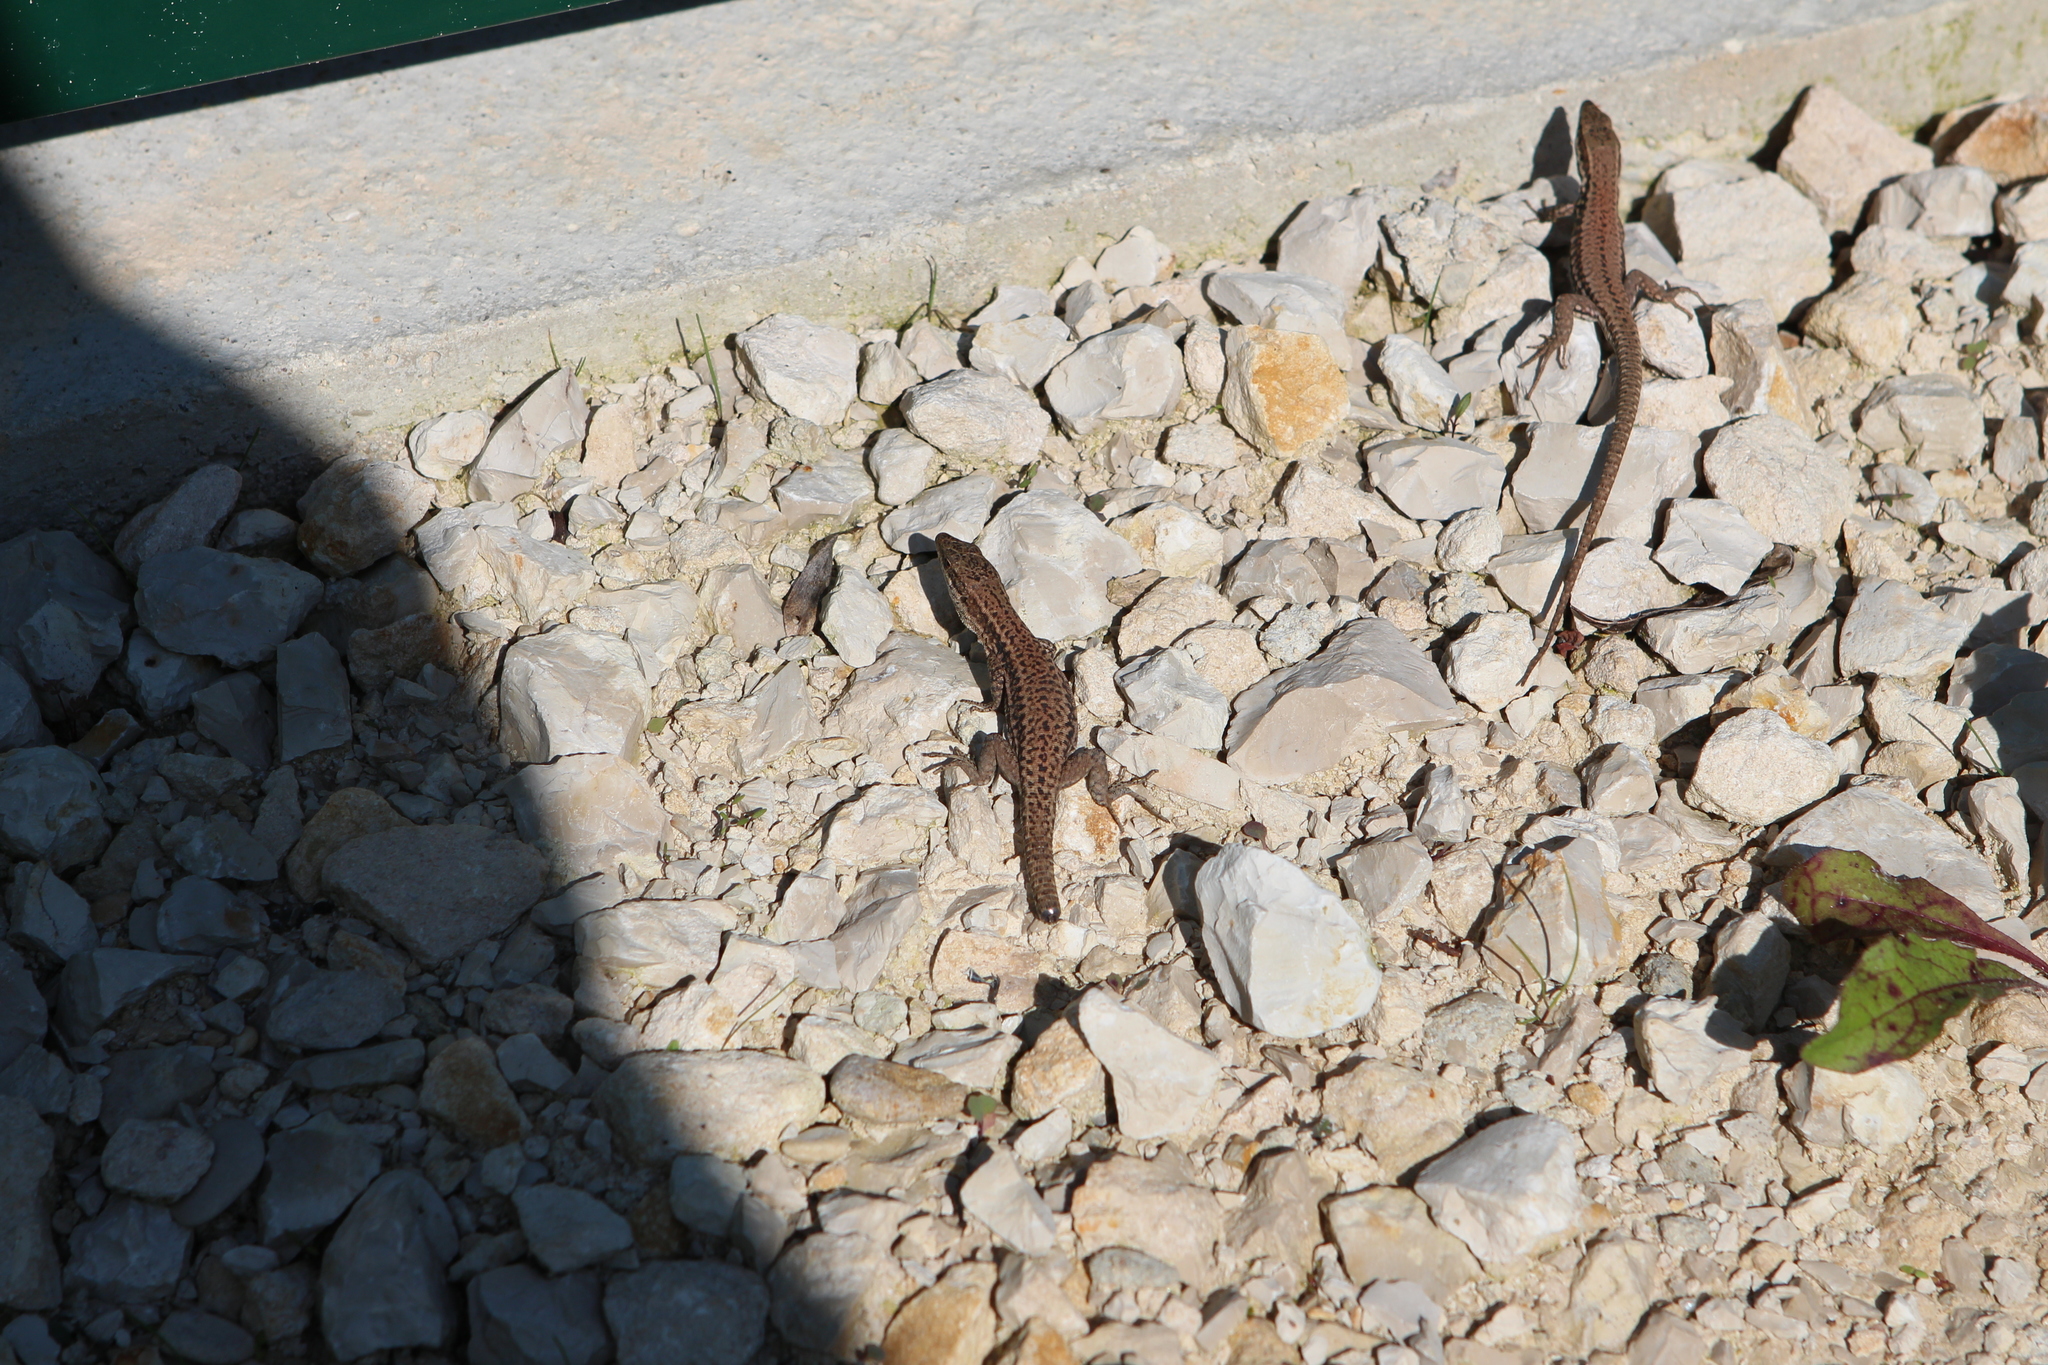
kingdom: Animalia
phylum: Chordata
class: Squamata
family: Lacertidae
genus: Podarcis
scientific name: Podarcis muralis
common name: Common wall lizard
